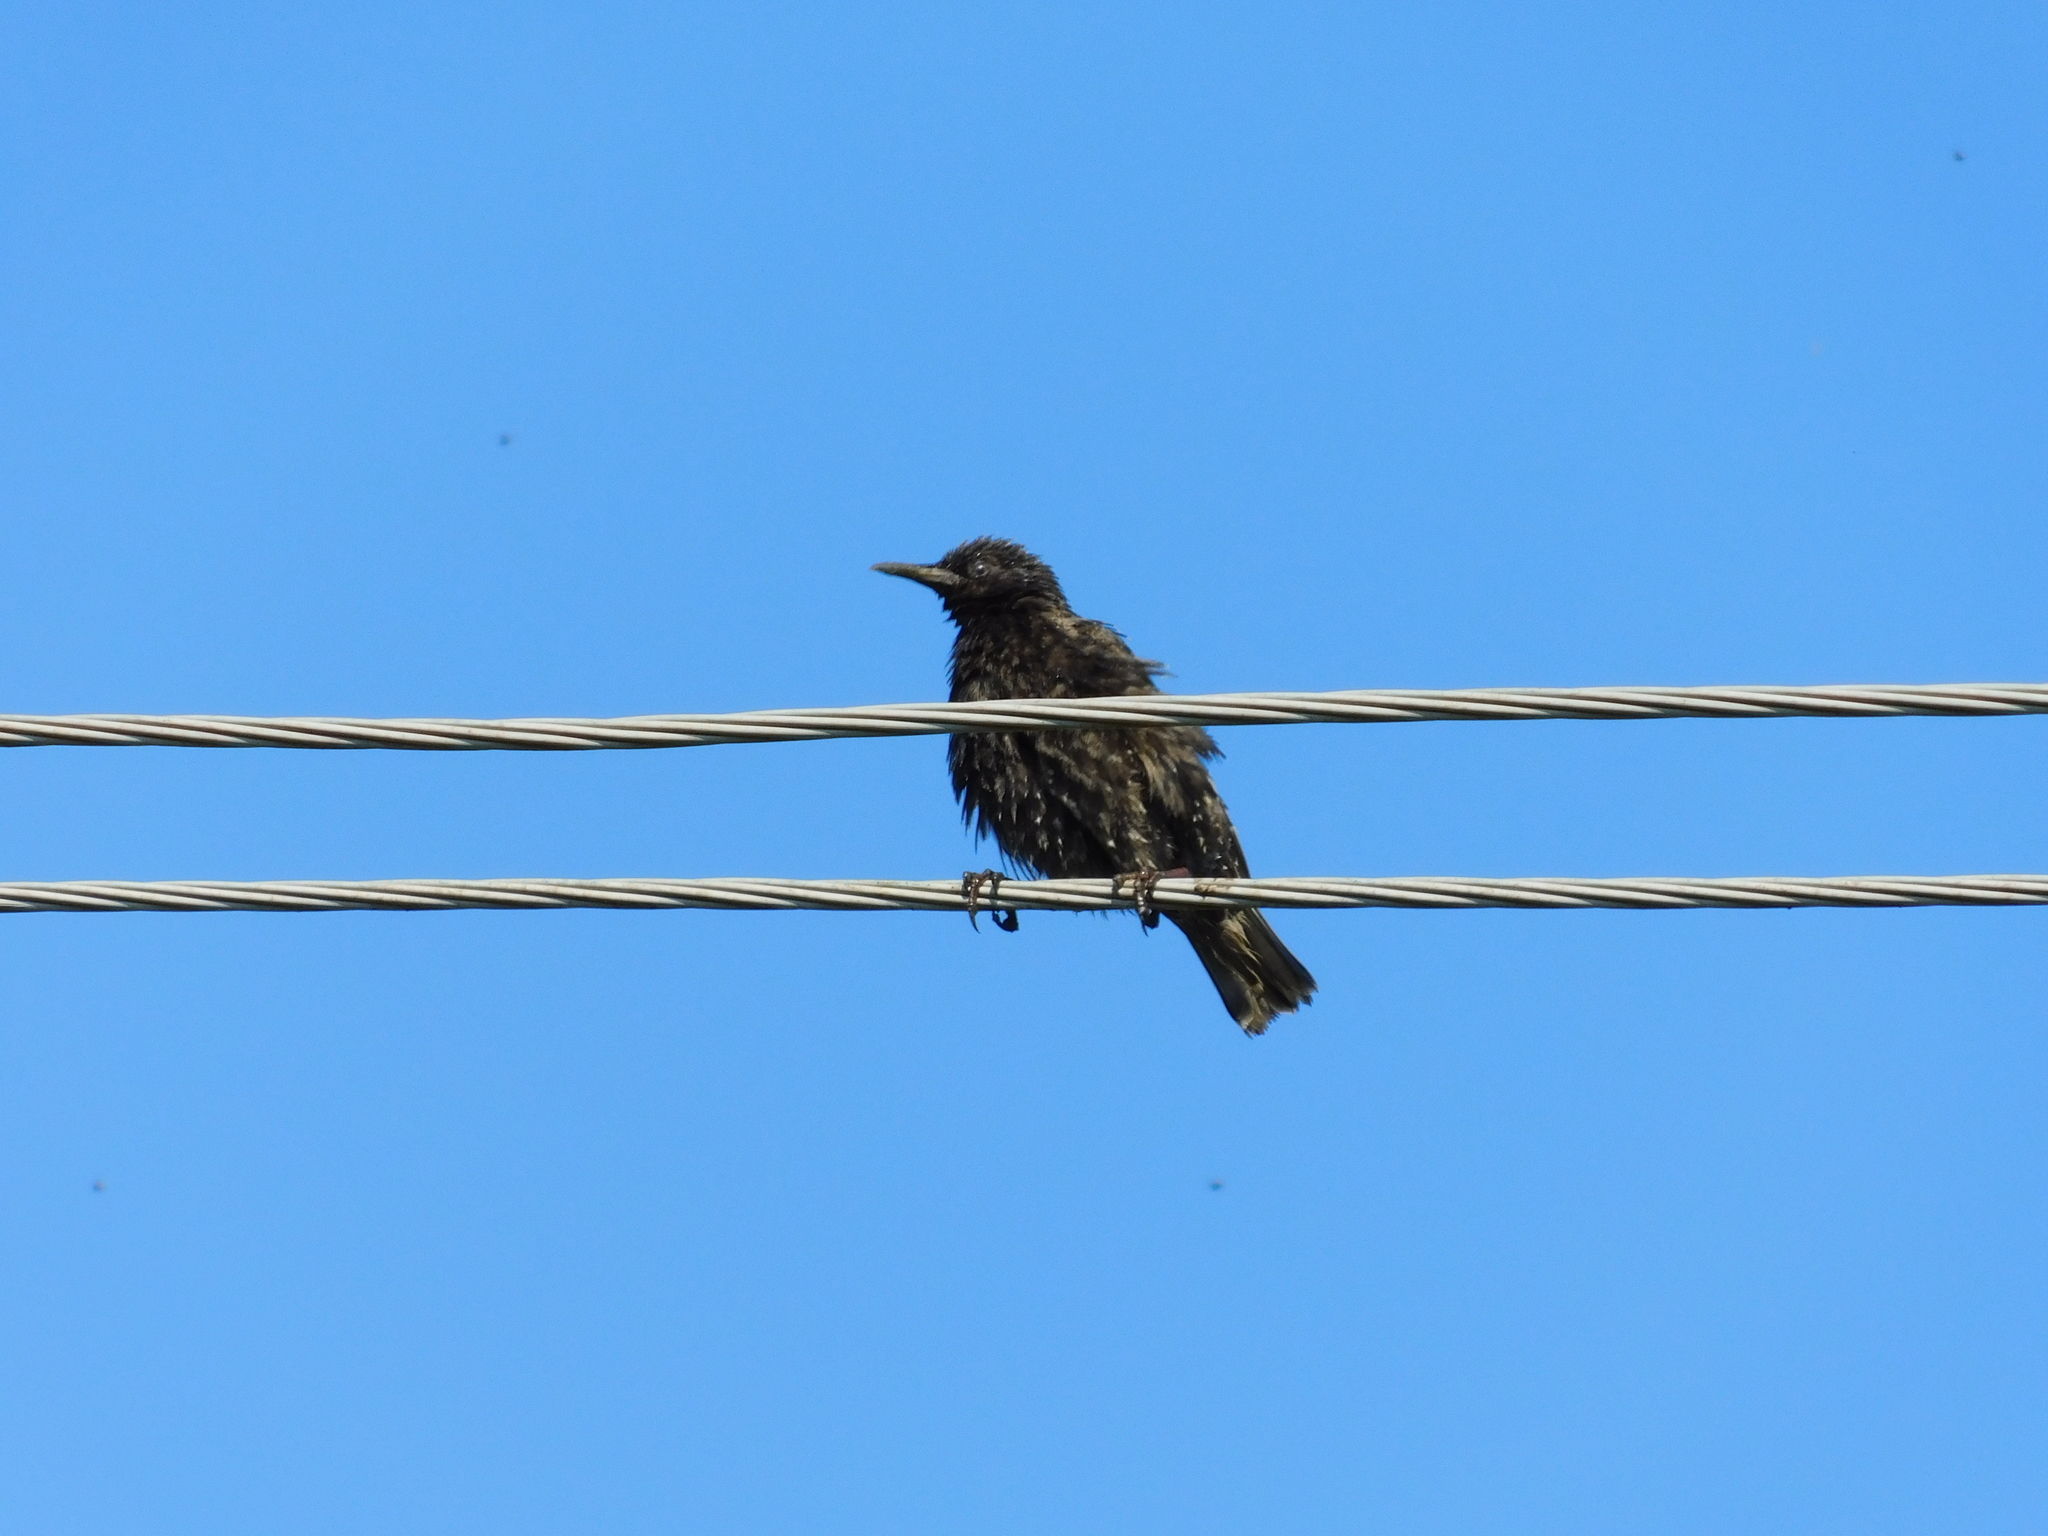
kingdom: Animalia
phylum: Chordata
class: Aves
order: Passeriformes
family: Sturnidae
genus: Sturnus
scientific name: Sturnus vulgaris
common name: Common starling
